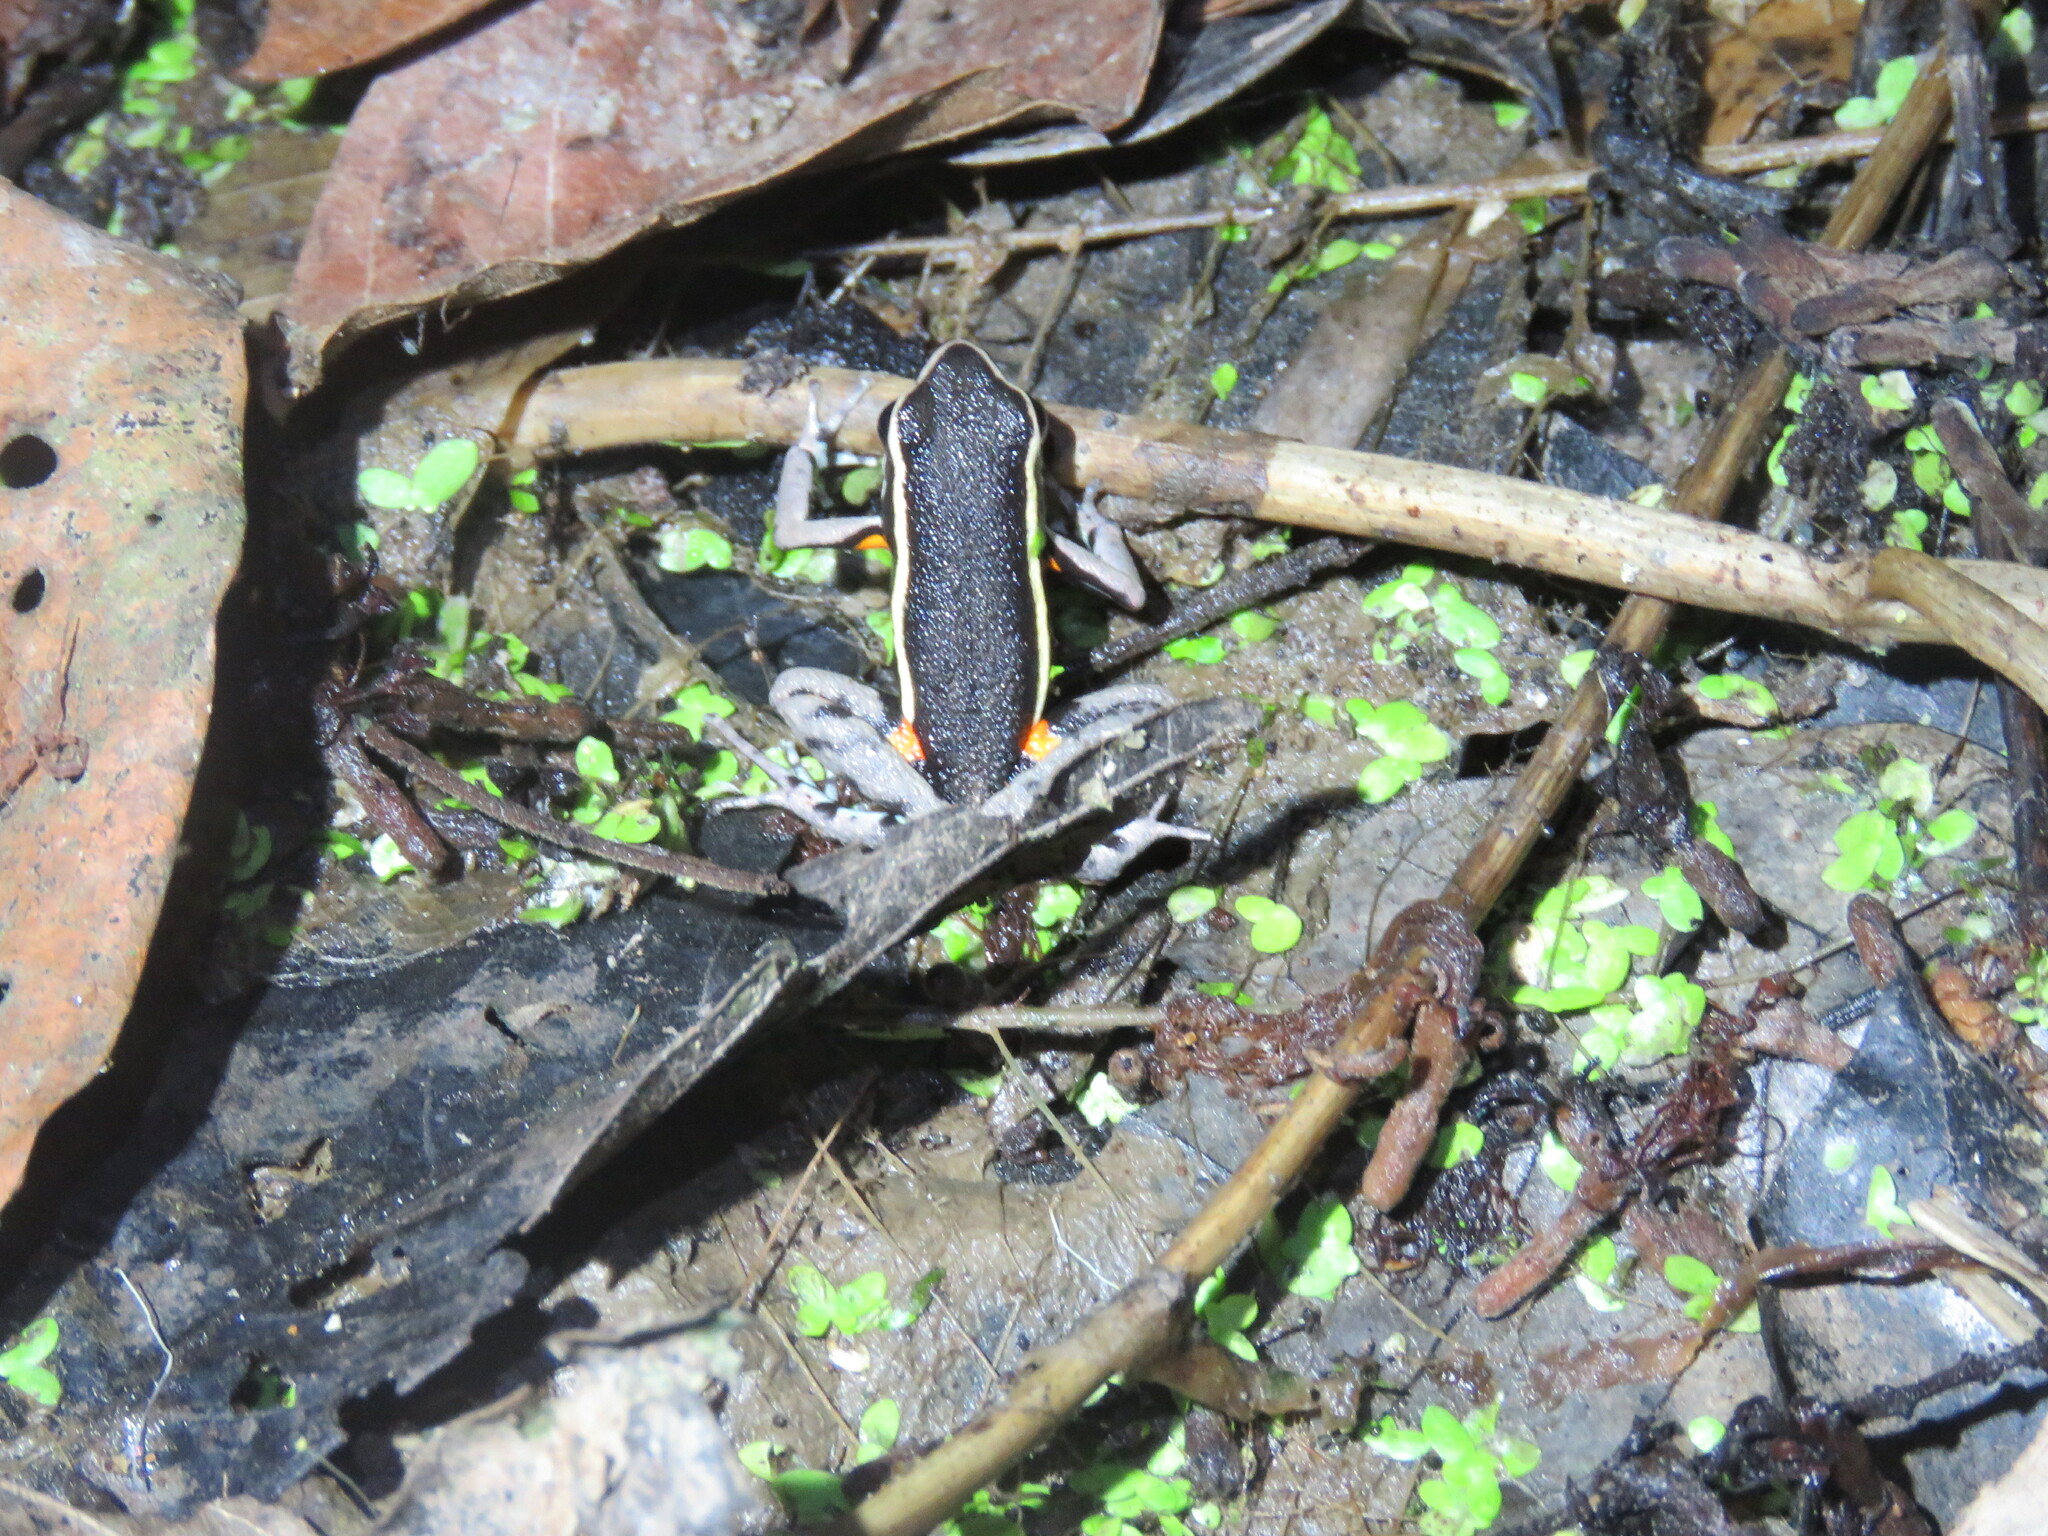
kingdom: Animalia
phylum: Chordata
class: Amphibia
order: Anura
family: Dendrobatidae
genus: Ameerega
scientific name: Ameerega picta
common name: Spot-legged poison frog
